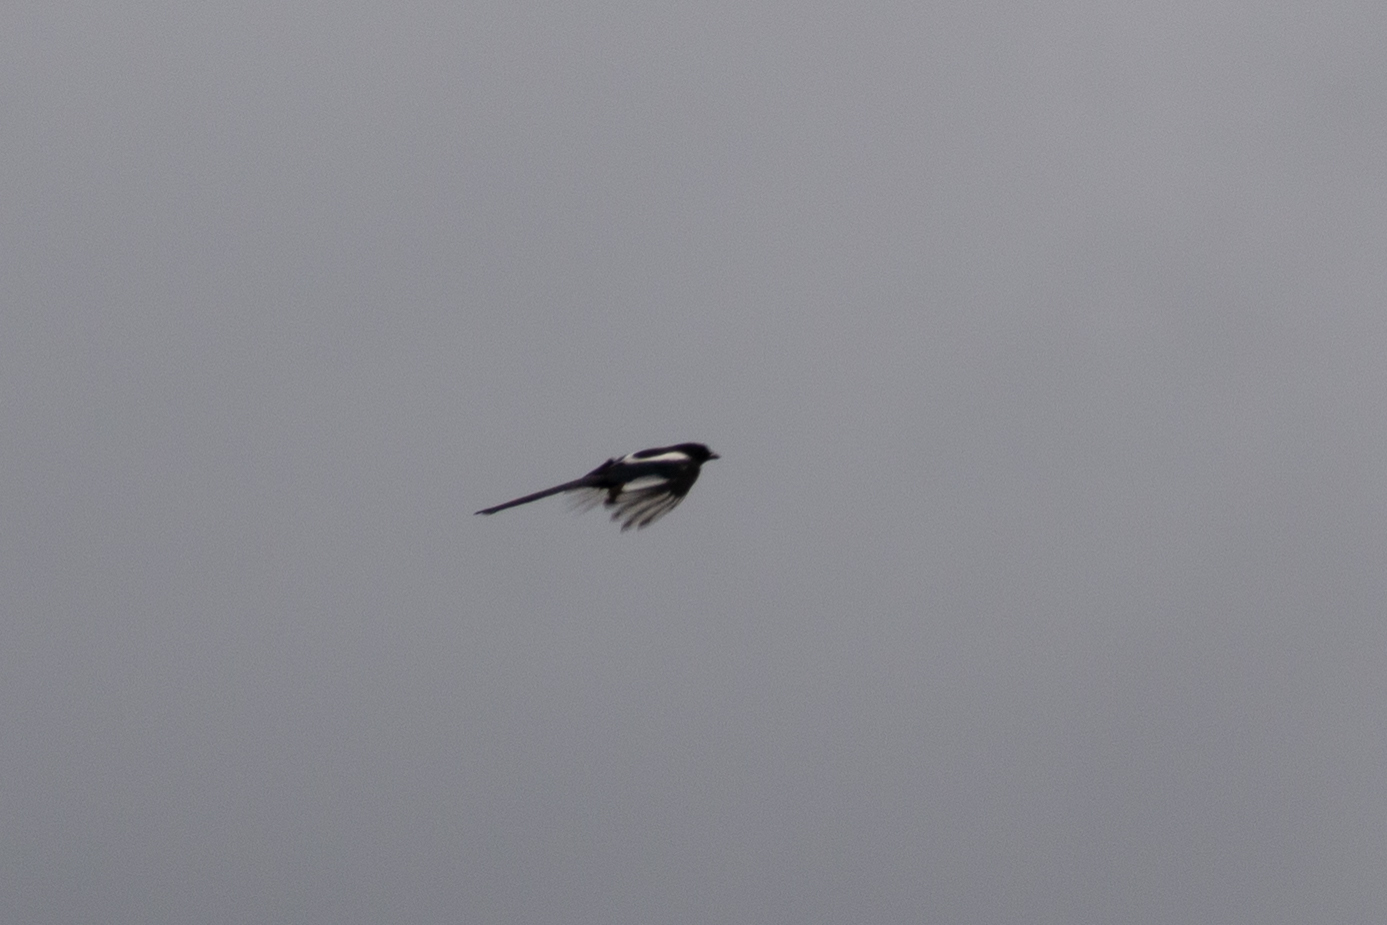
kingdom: Animalia
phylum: Chordata
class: Aves
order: Passeriformes
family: Corvidae
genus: Pica
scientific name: Pica hudsonia
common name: Black-billed magpie
